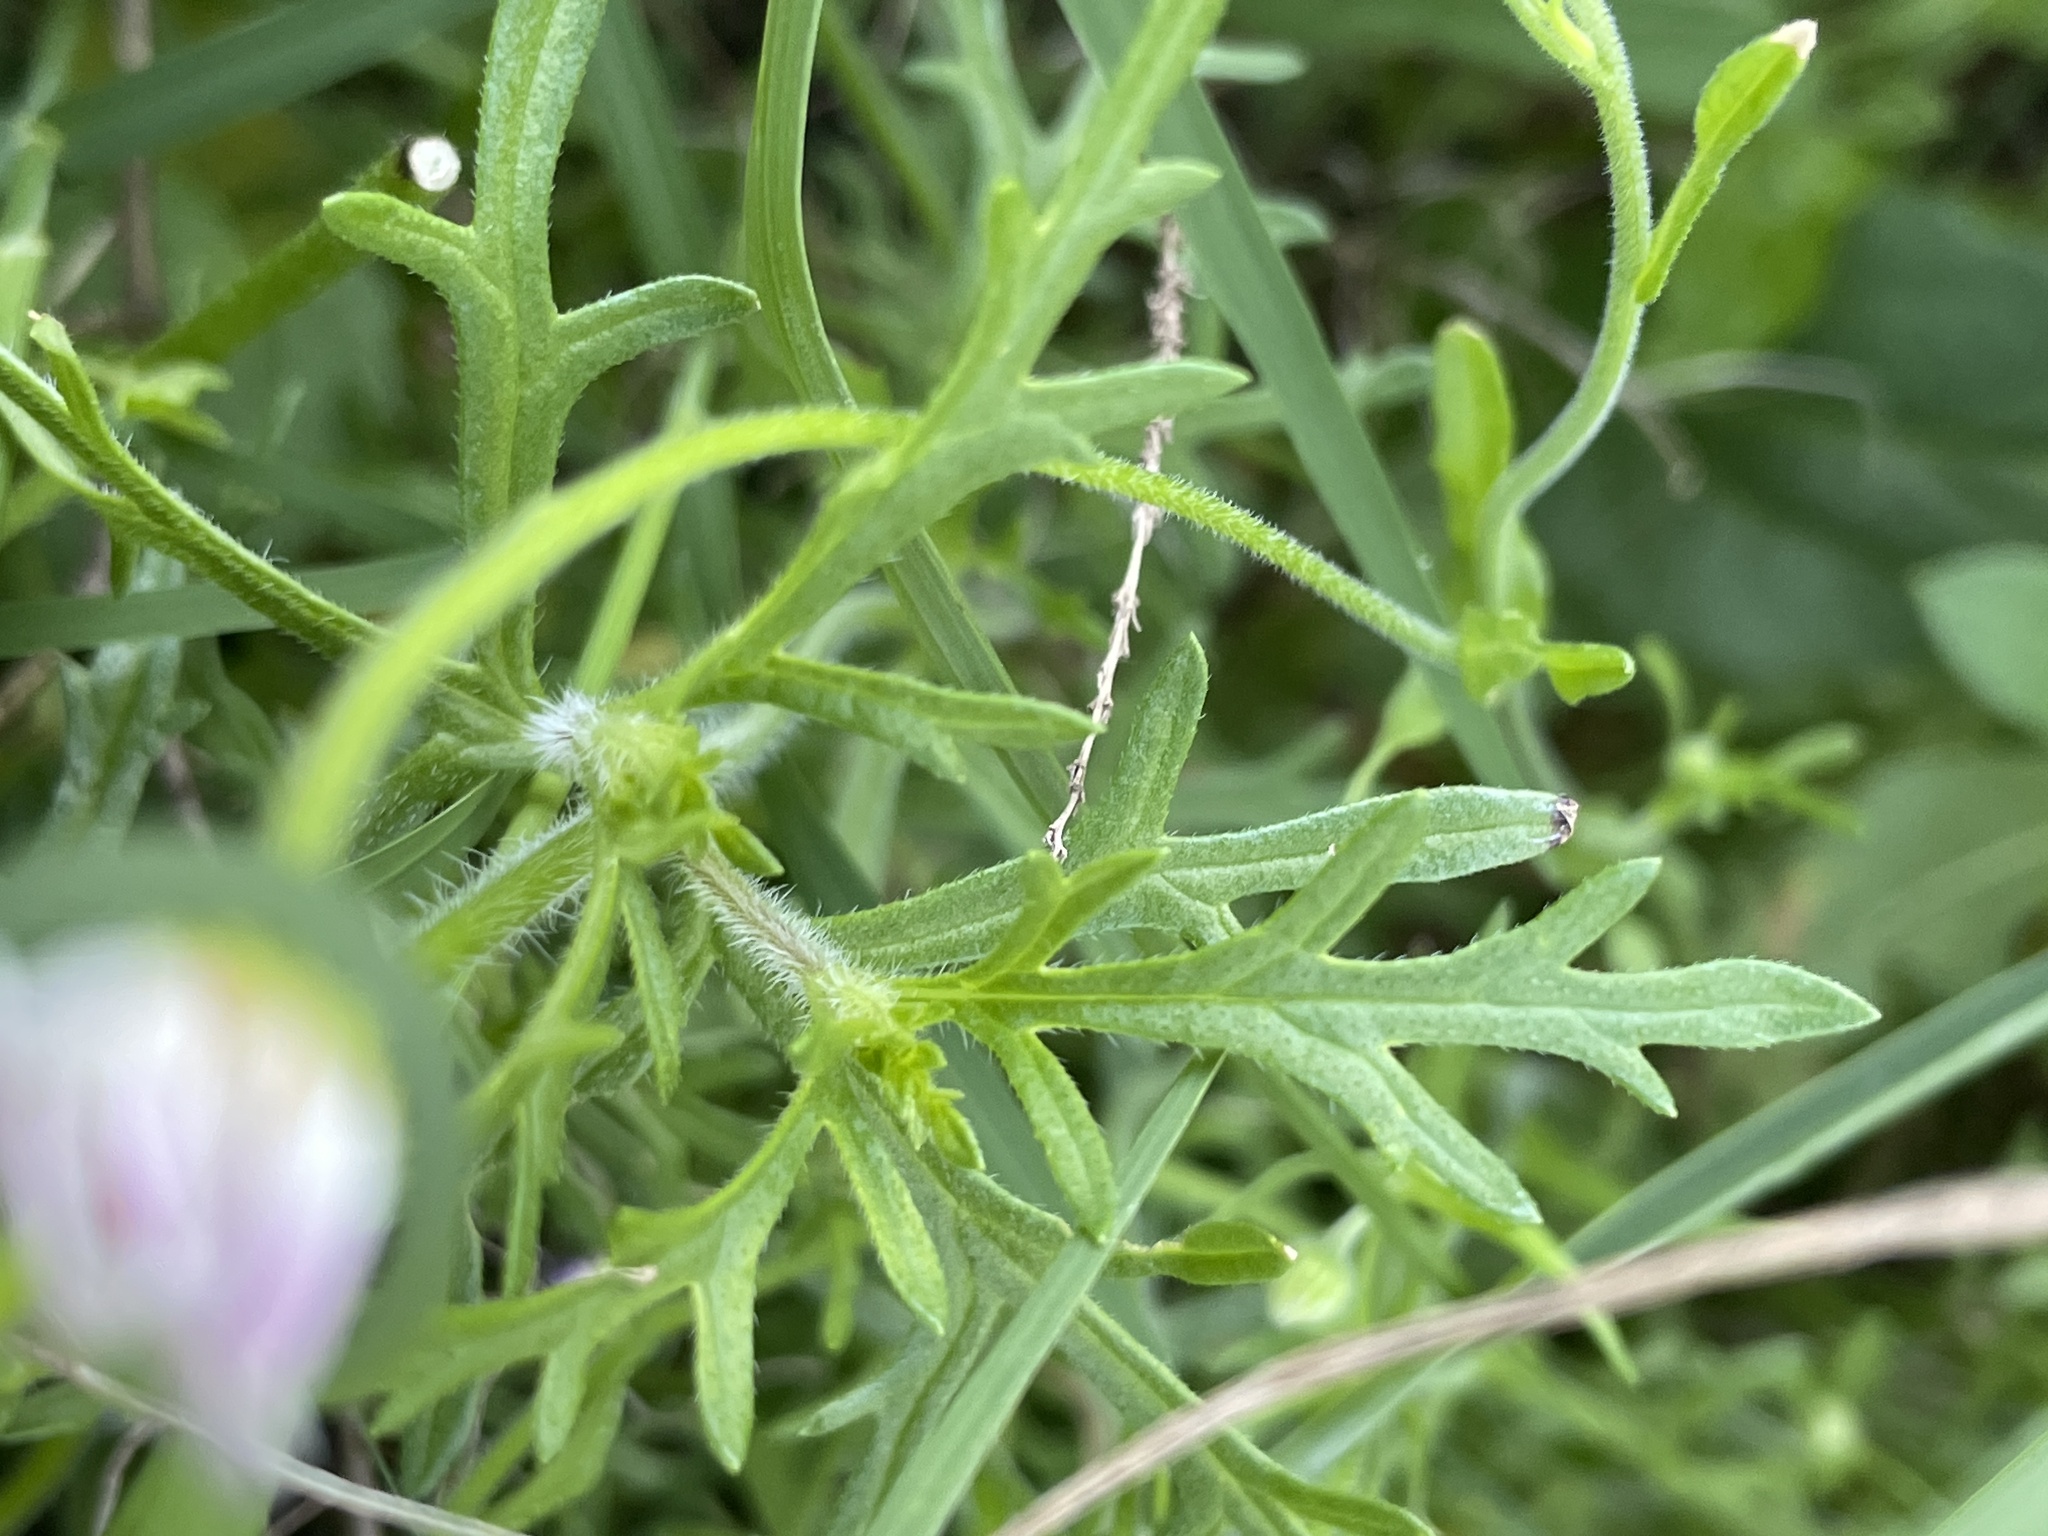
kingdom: Plantae
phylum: Tracheophyta
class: Magnoliopsida
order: Lamiales
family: Verbenaceae
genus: Verbena
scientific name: Verbena bipinnatifida
